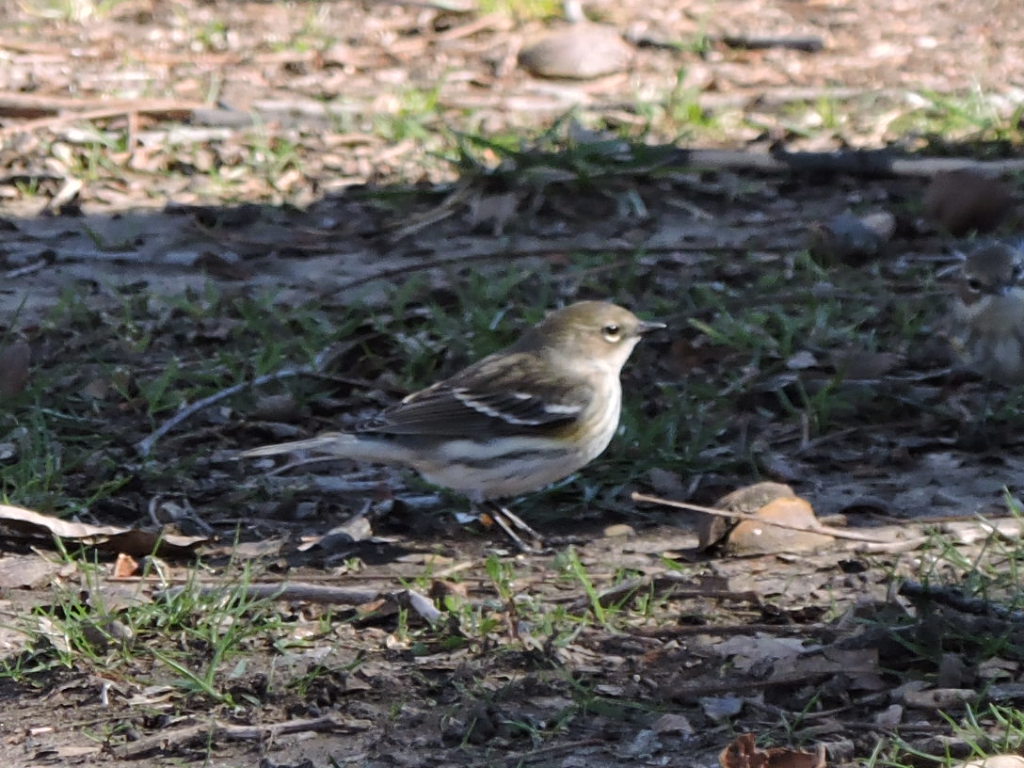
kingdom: Animalia
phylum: Chordata
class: Aves
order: Passeriformes
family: Parulidae
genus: Setophaga
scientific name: Setophaga coronata
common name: Myrtle warbler
